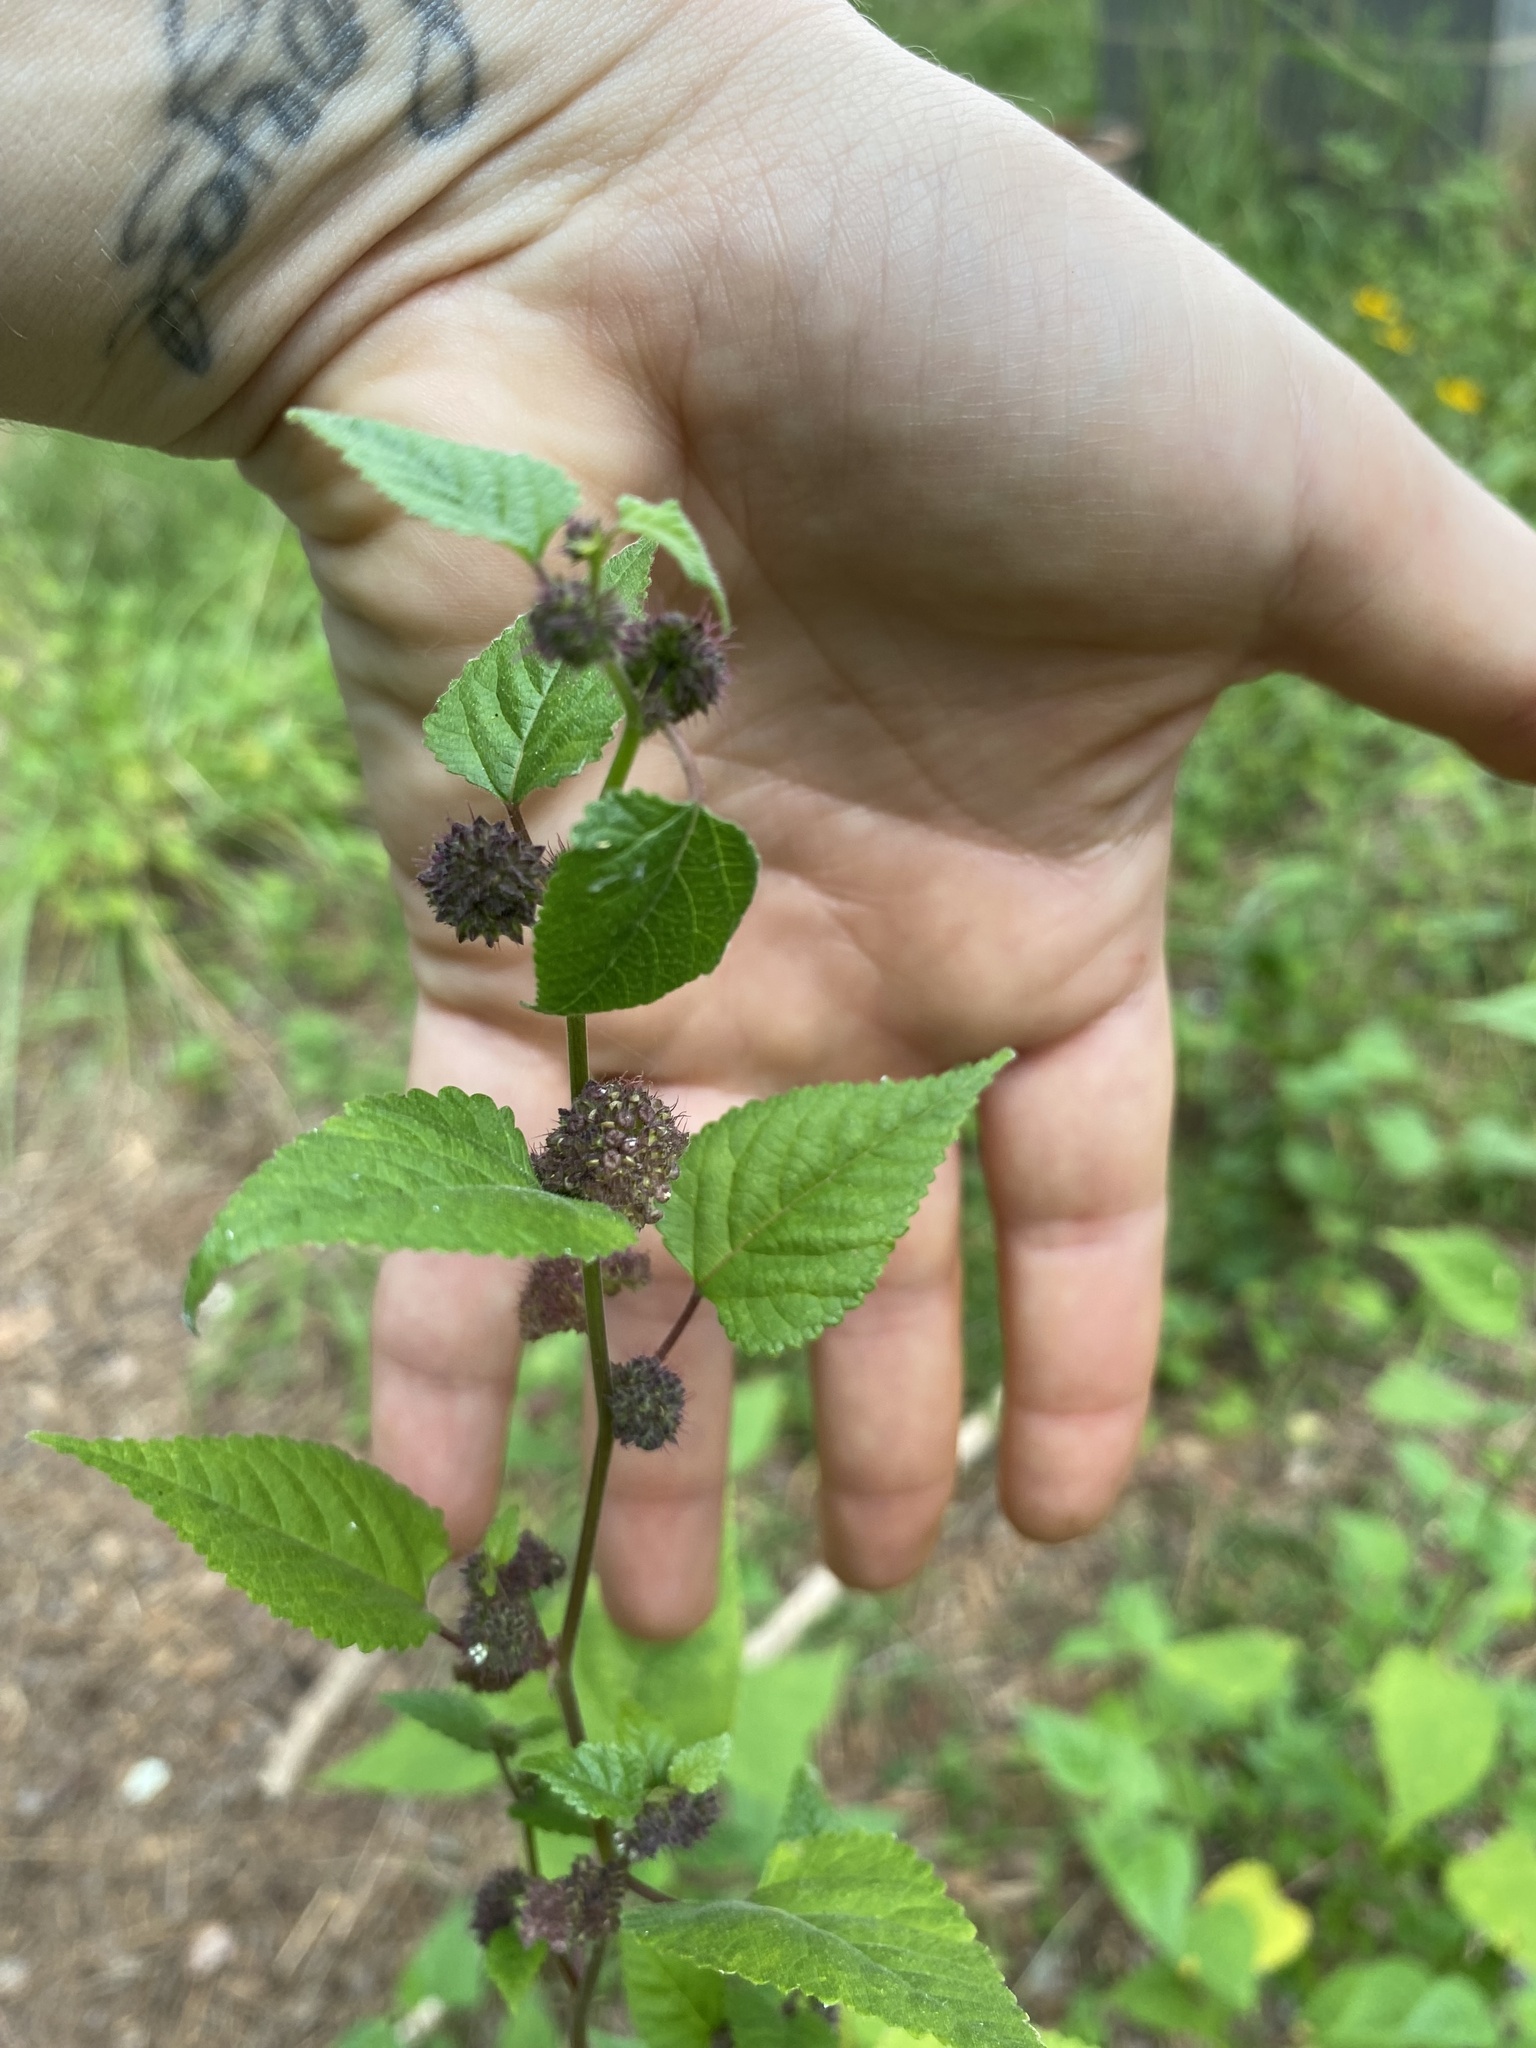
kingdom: Plantae
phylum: Tracheophyta
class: Magnoliopsida
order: Rosales
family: Moraceae
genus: Fatoua
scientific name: Fatoua villosa
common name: Hairy crabweed
